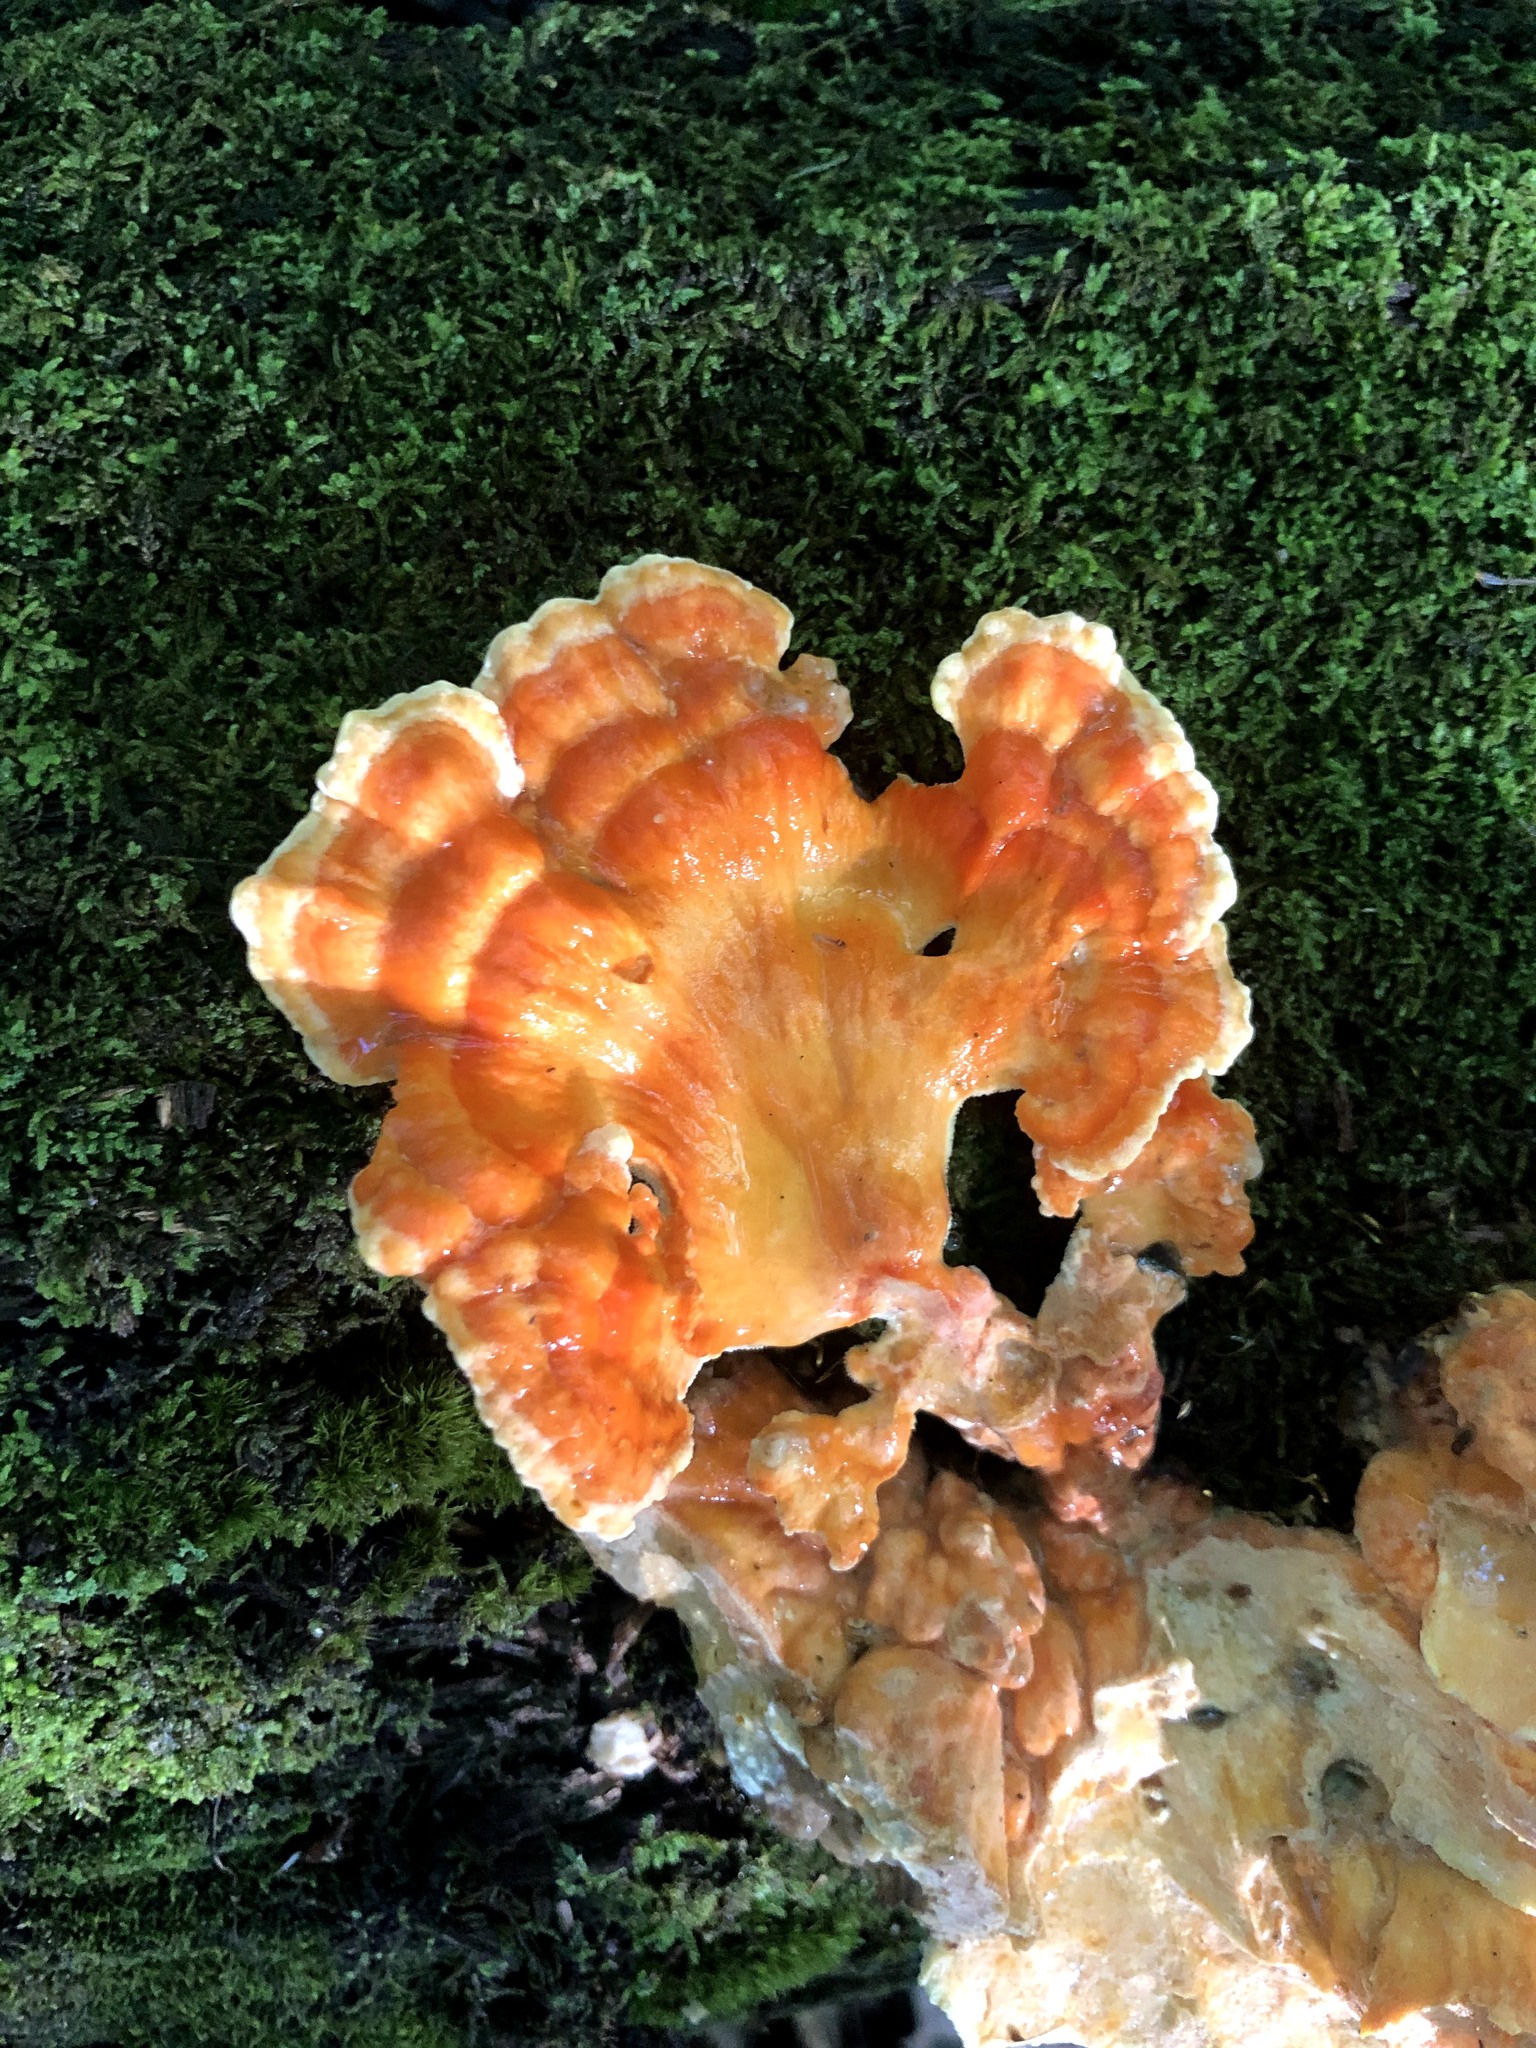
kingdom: Fungi
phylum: Basidiomycota
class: Agaricomycetes
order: Polyporales
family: Laetiporaceae
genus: Laetiporus
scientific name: Laetiporus sulphureus
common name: Chicken of the woods
